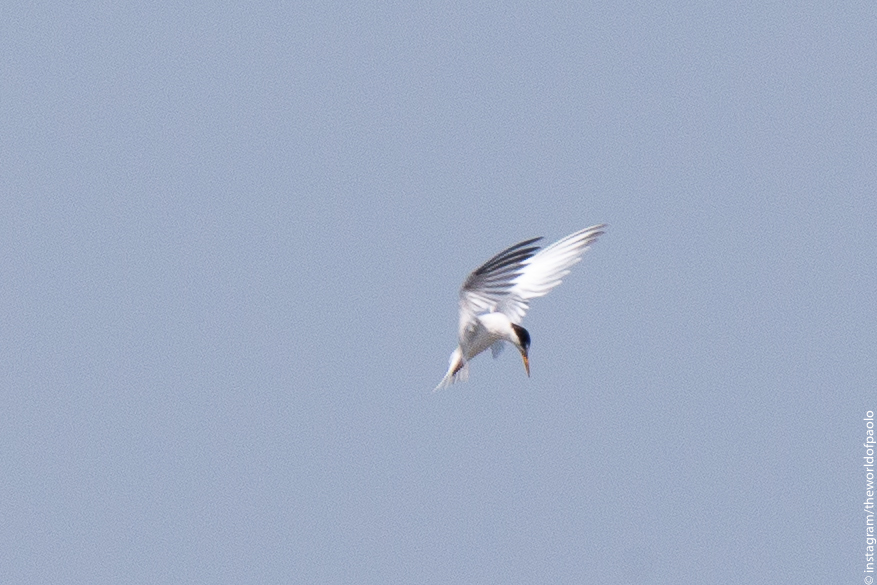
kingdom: Animalia
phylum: Chordata
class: Aves
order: Charadriiformes
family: Laridae
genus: Sternula
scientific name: Sternula albifrons
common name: Little tern
